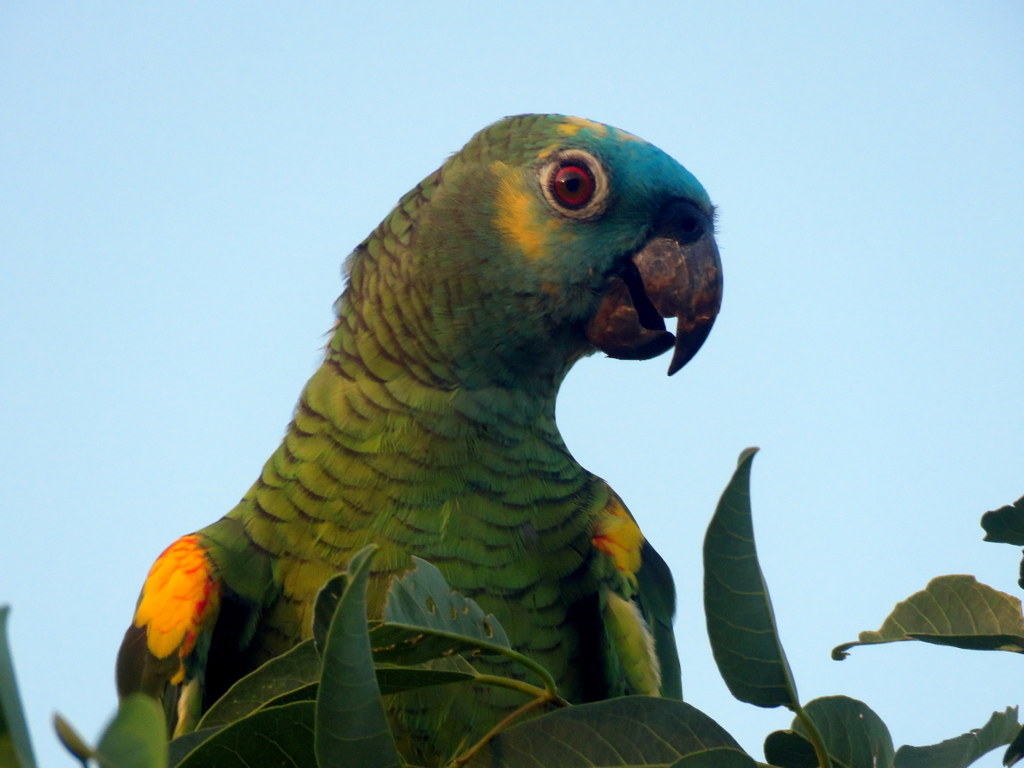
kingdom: Animalia
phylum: Chordata
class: Aves
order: Psittaciformes
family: Psittacidae
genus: Amazona
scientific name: Amazona aestiva
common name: Turquoise-fronted amazon
